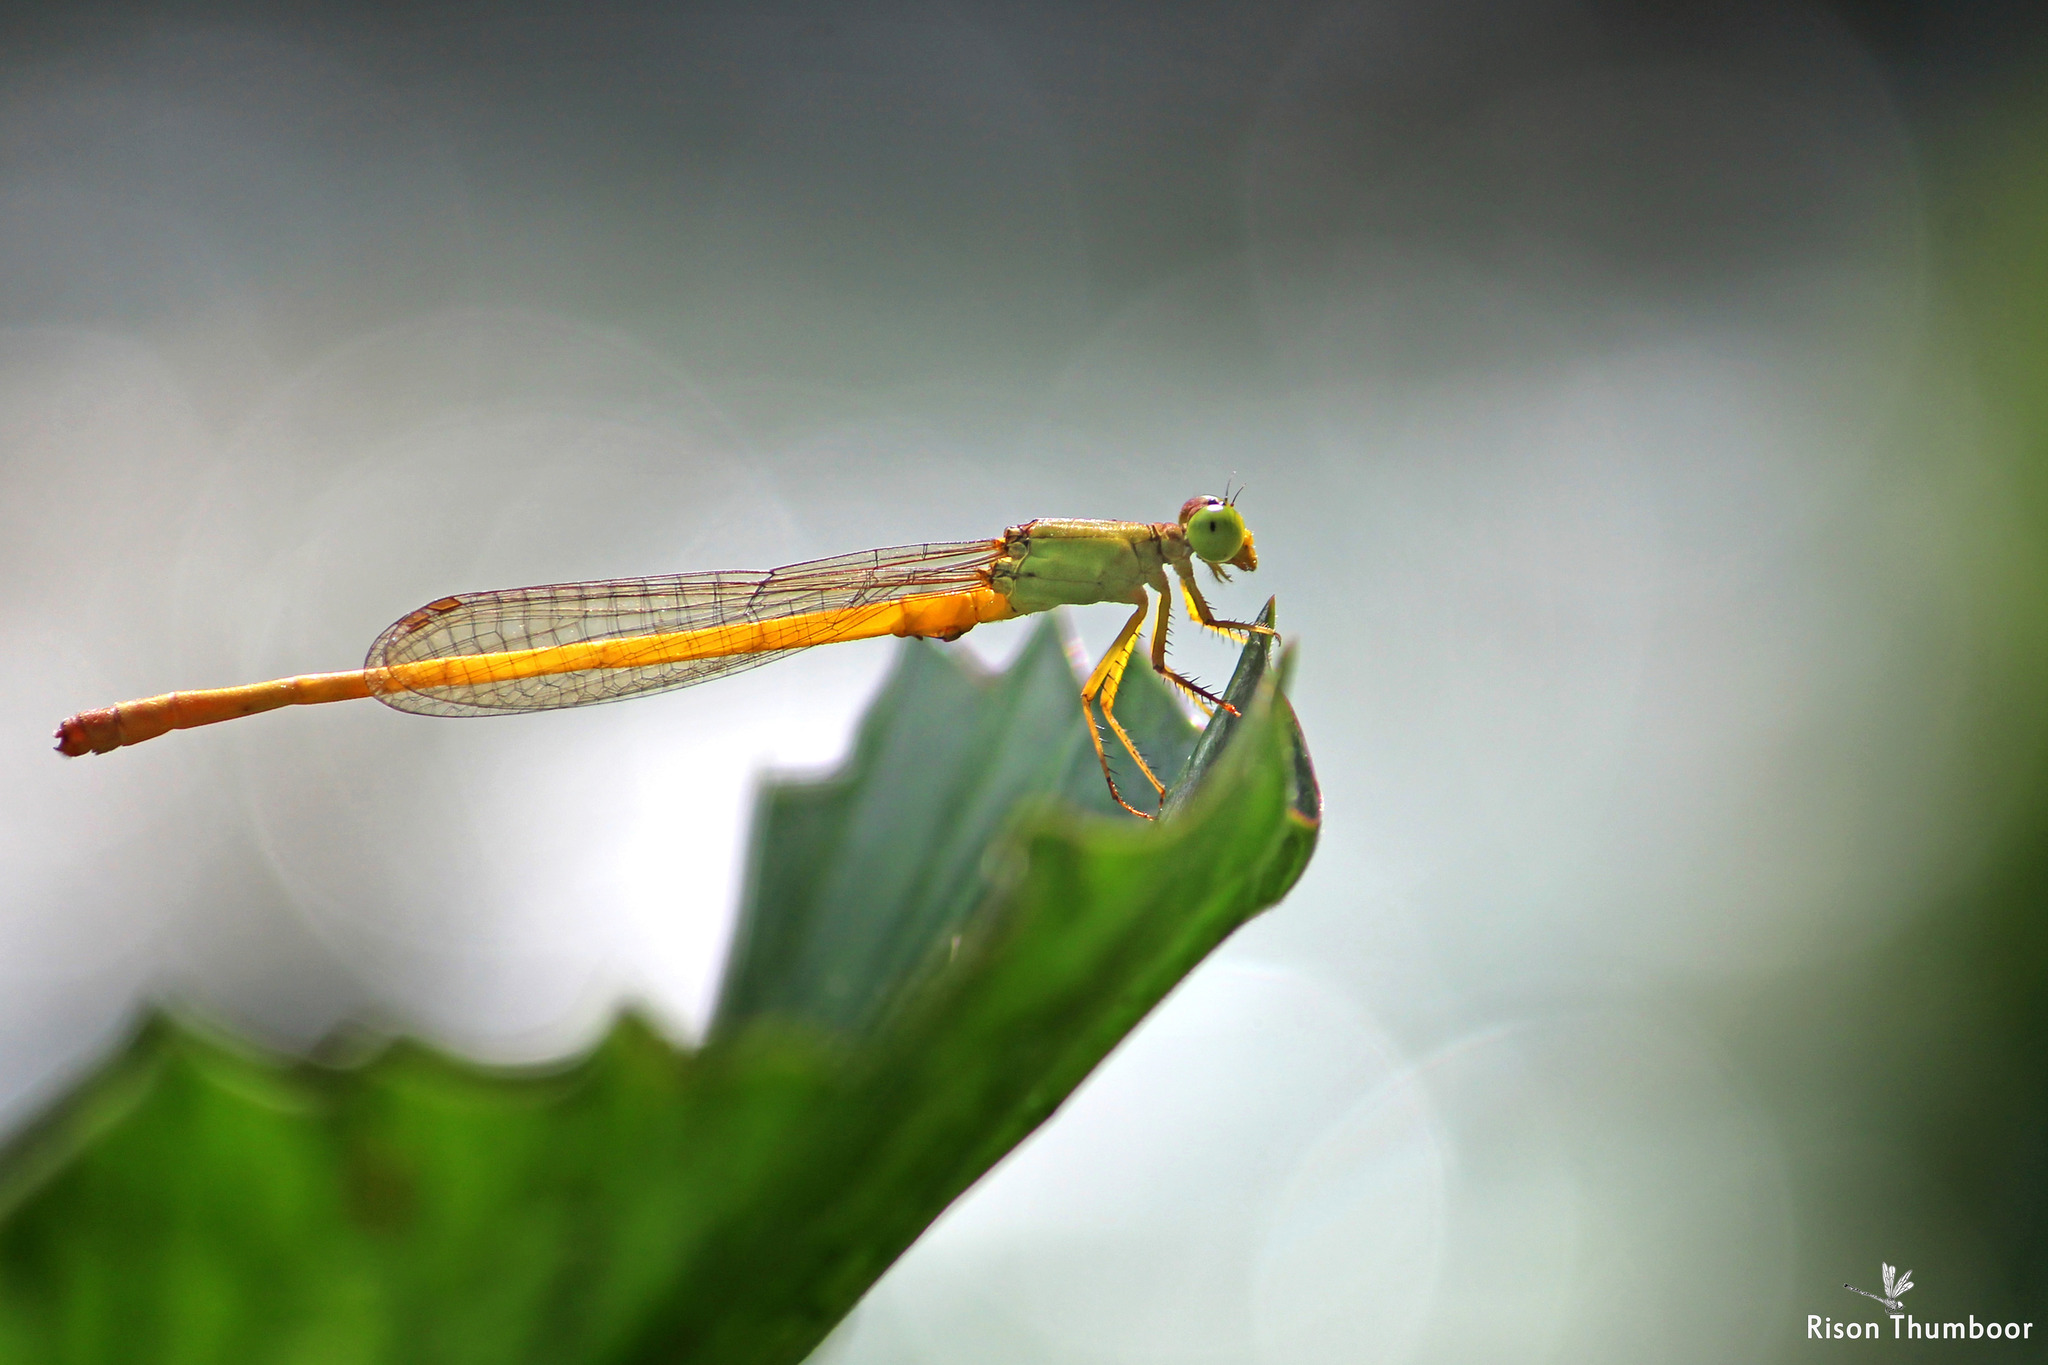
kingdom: Animalia
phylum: Arthropoda
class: Insecta
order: Odonata
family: Coenagrionidae
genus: Ceriagrion
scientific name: Ceriagrion coromandelianum
